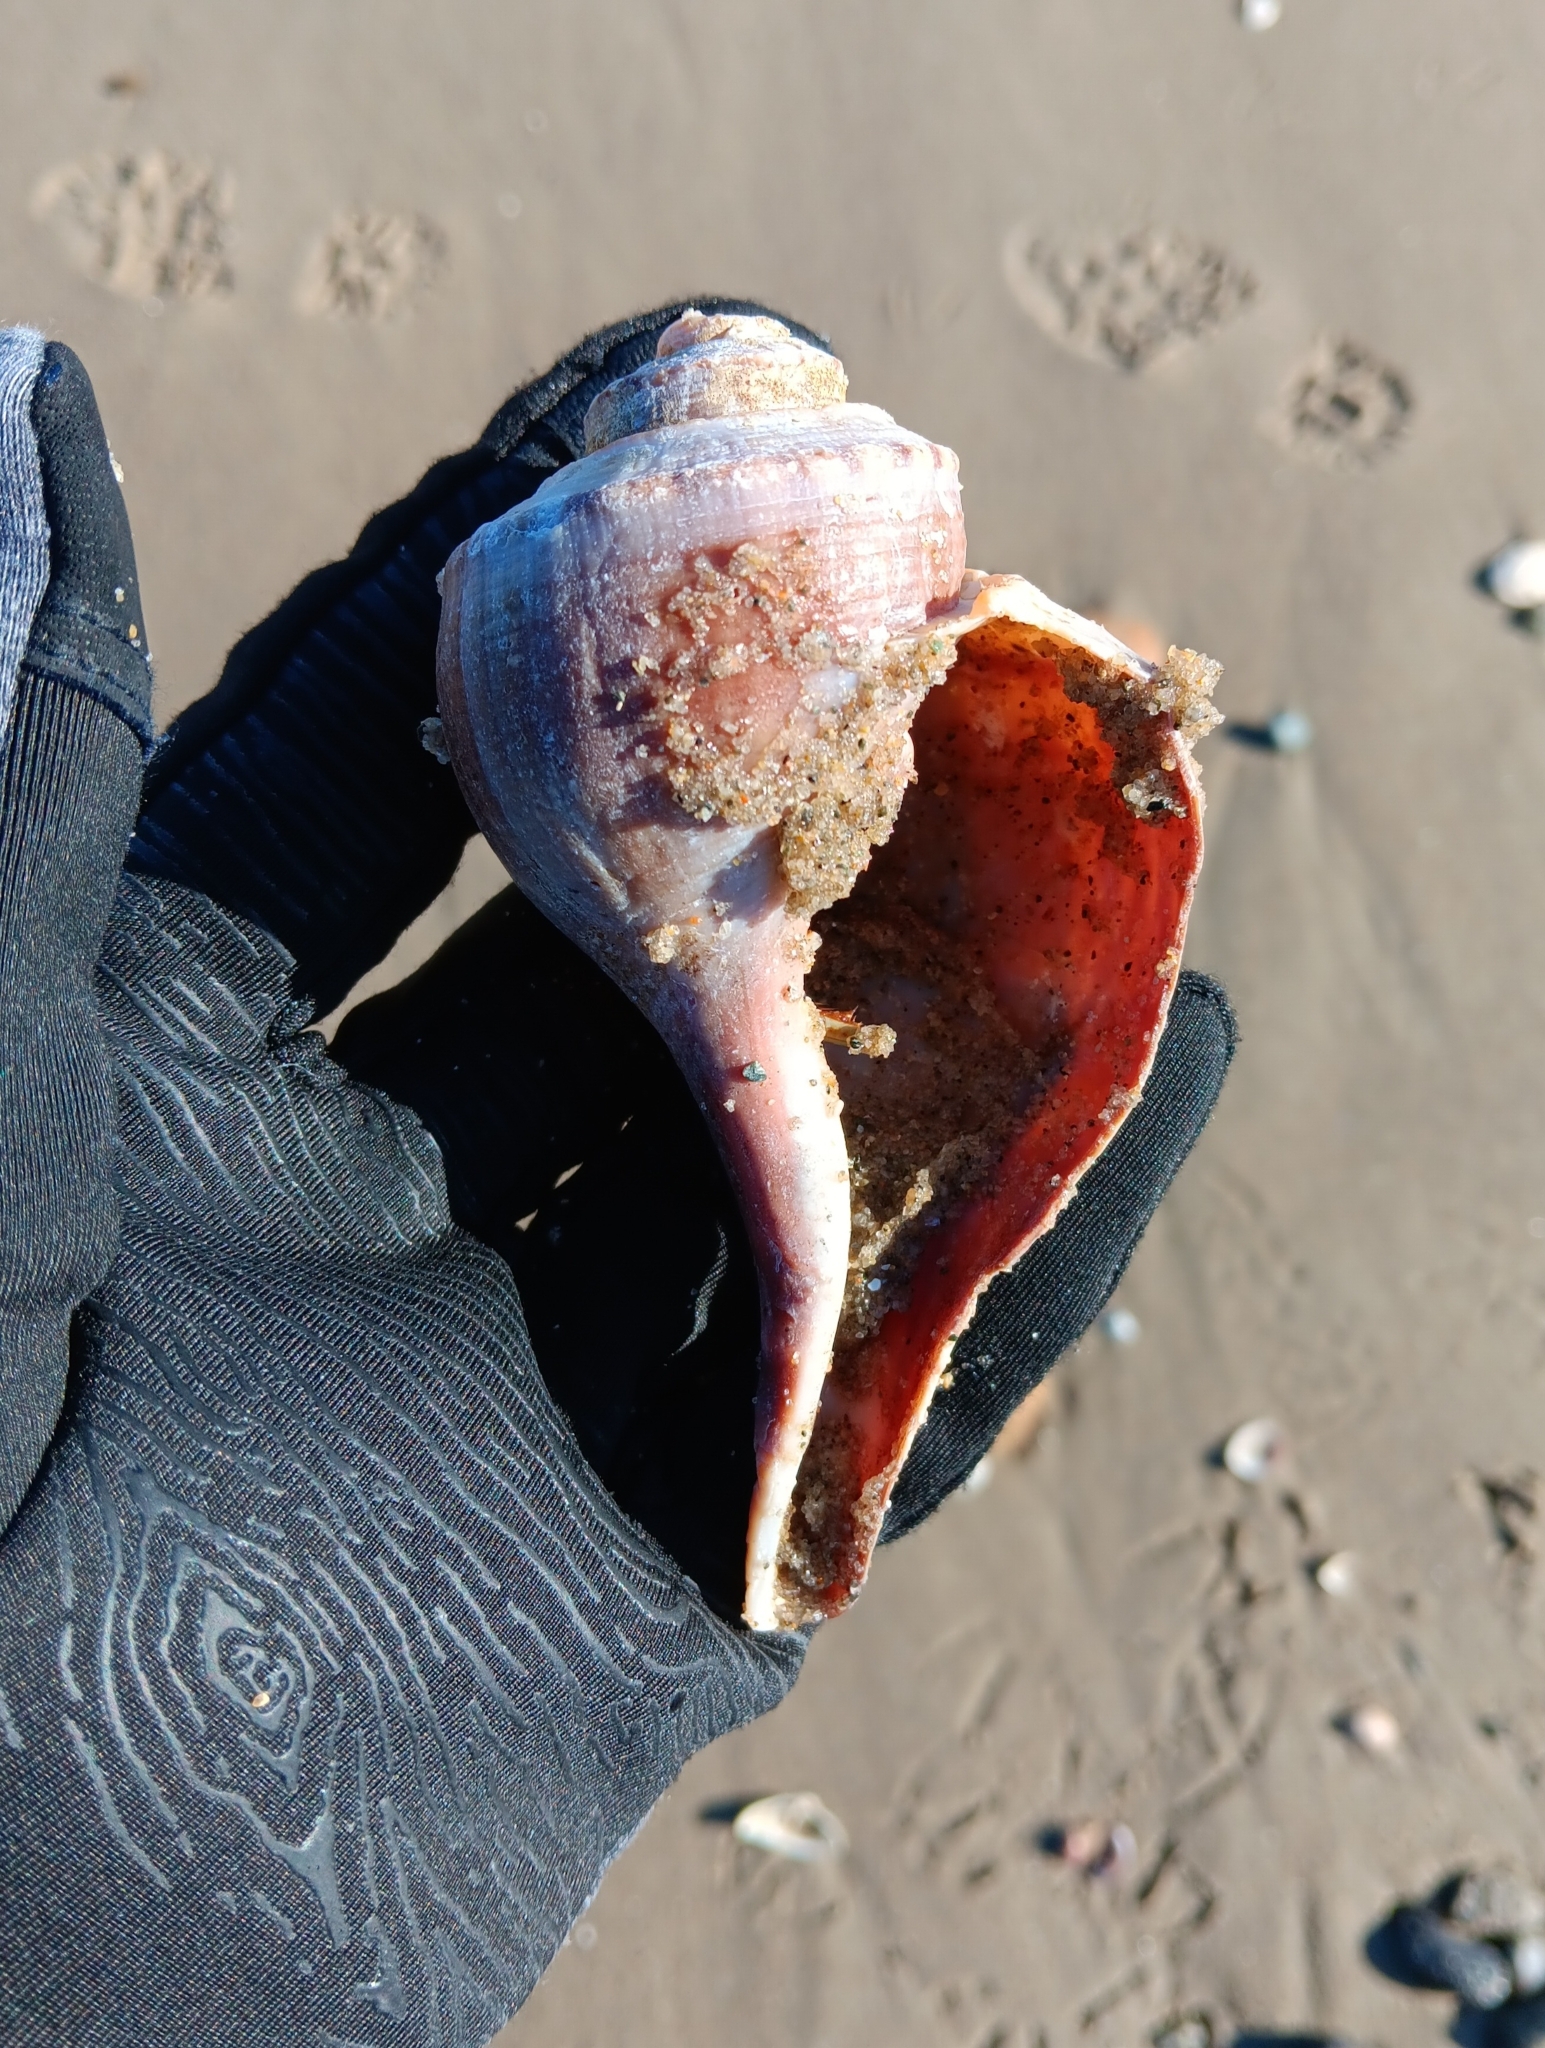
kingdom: Animalia
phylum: Mollusca
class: Gastropoda
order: Neogastropoda
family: Busyconidae
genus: Busycotypus
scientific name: Busycotypus canaliculatus
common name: Channeled whelk
